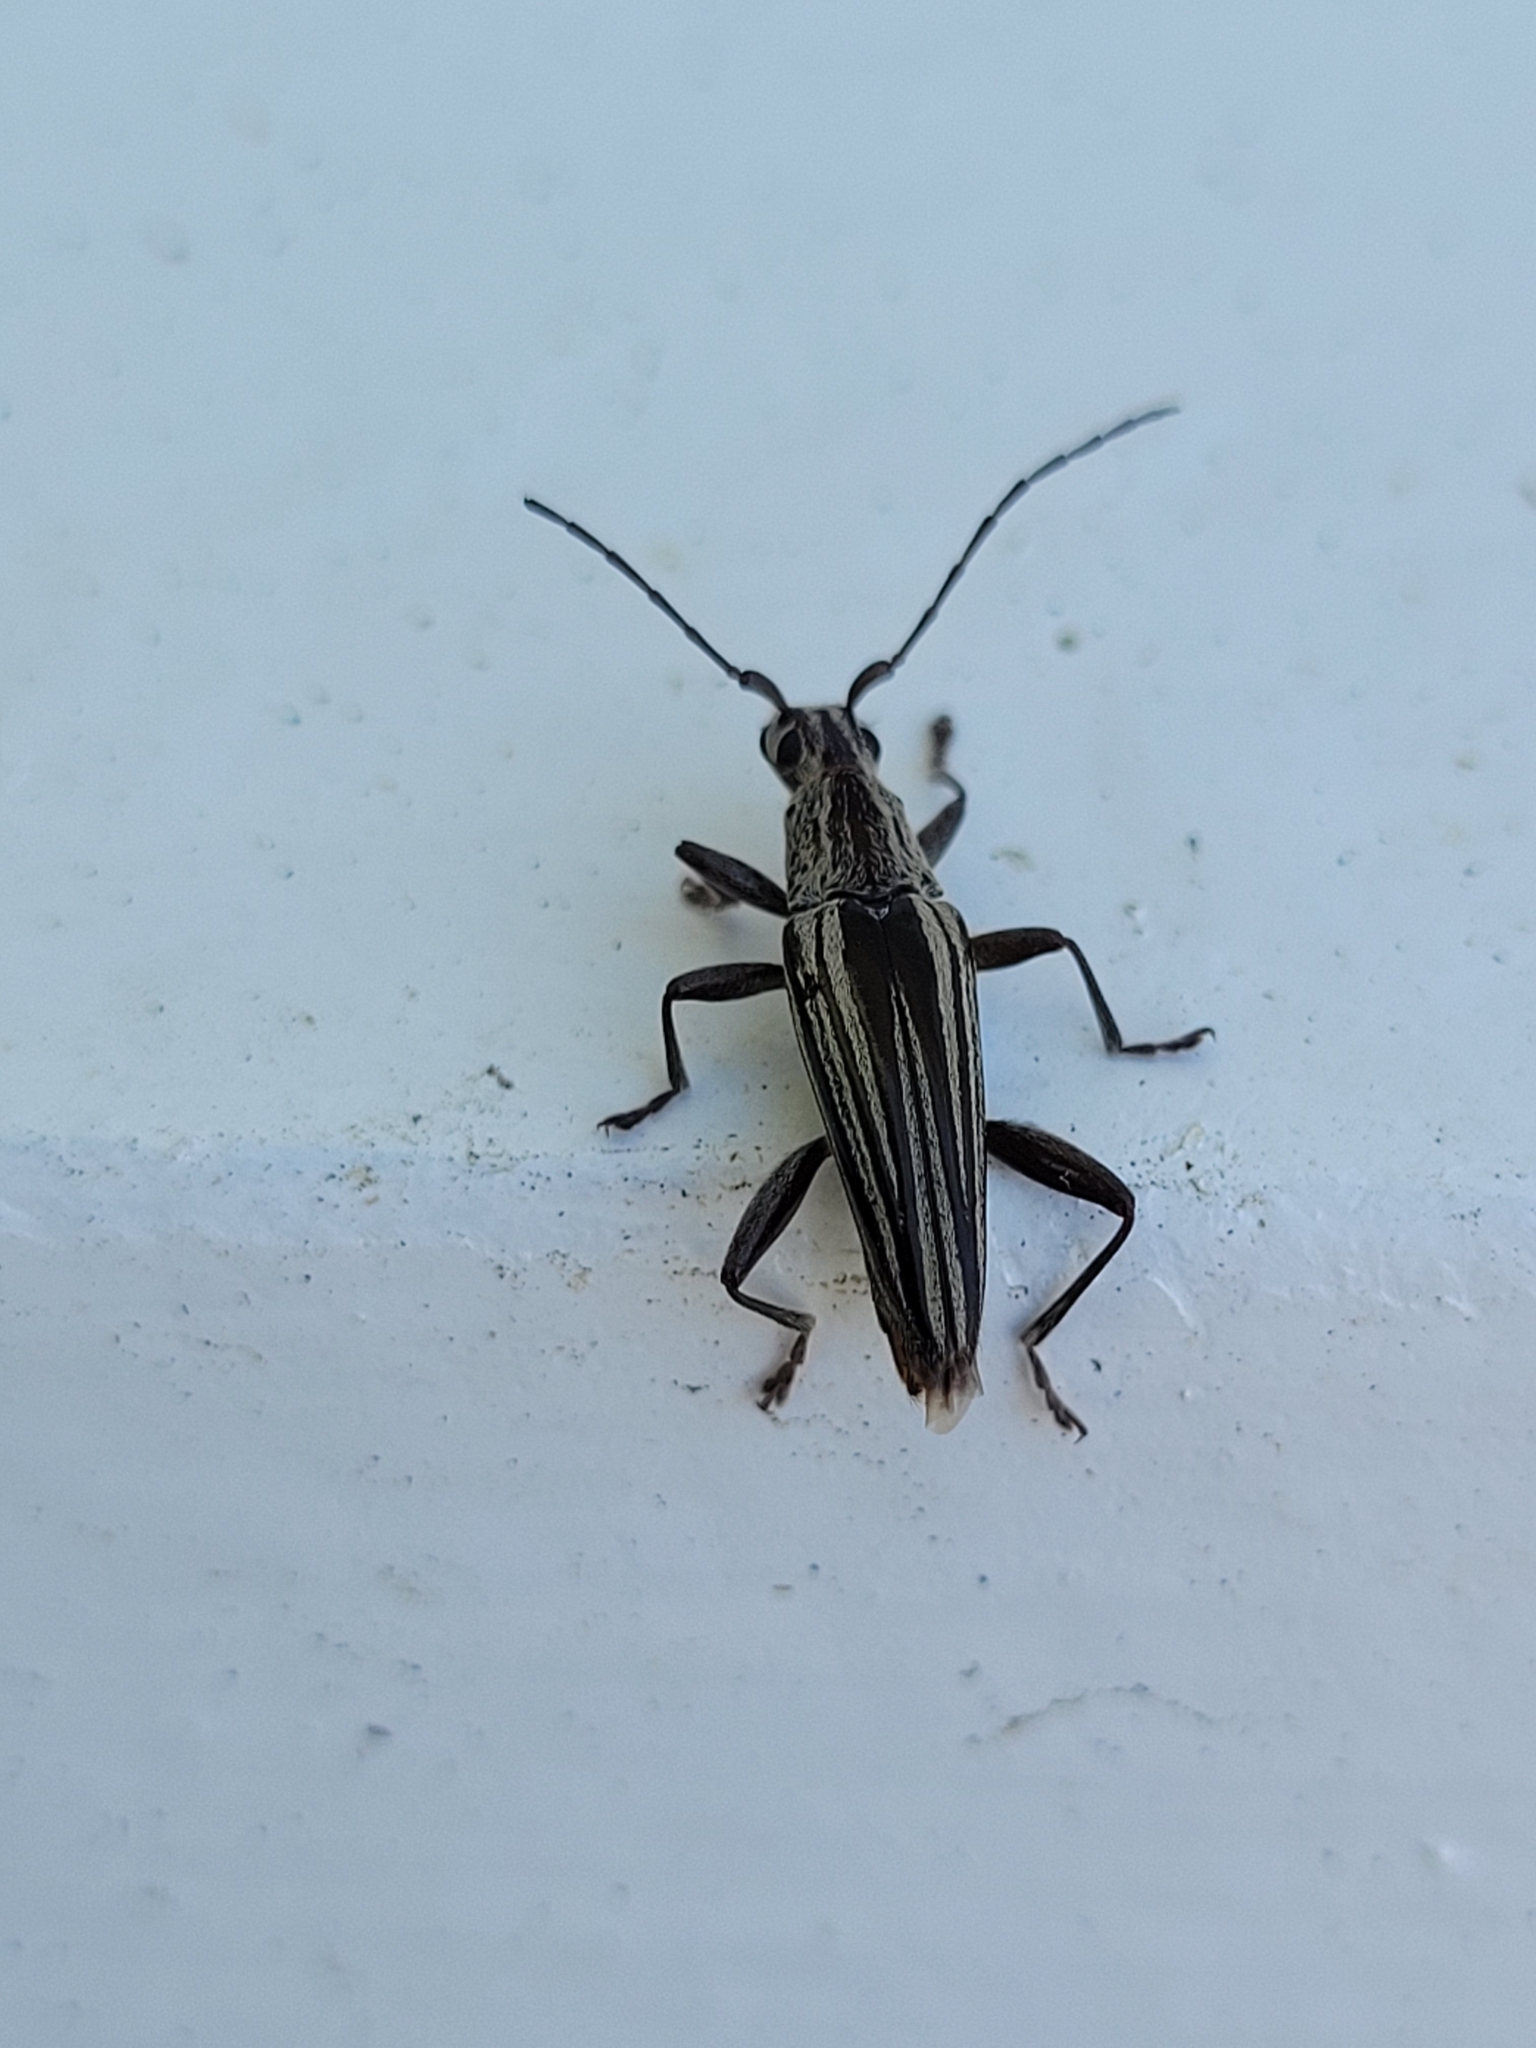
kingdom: Animalia
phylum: Arthropoda
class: Insecta
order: Coleoptera
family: Cerambycidae
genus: Coptomma
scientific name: Coptomma sulcatum
